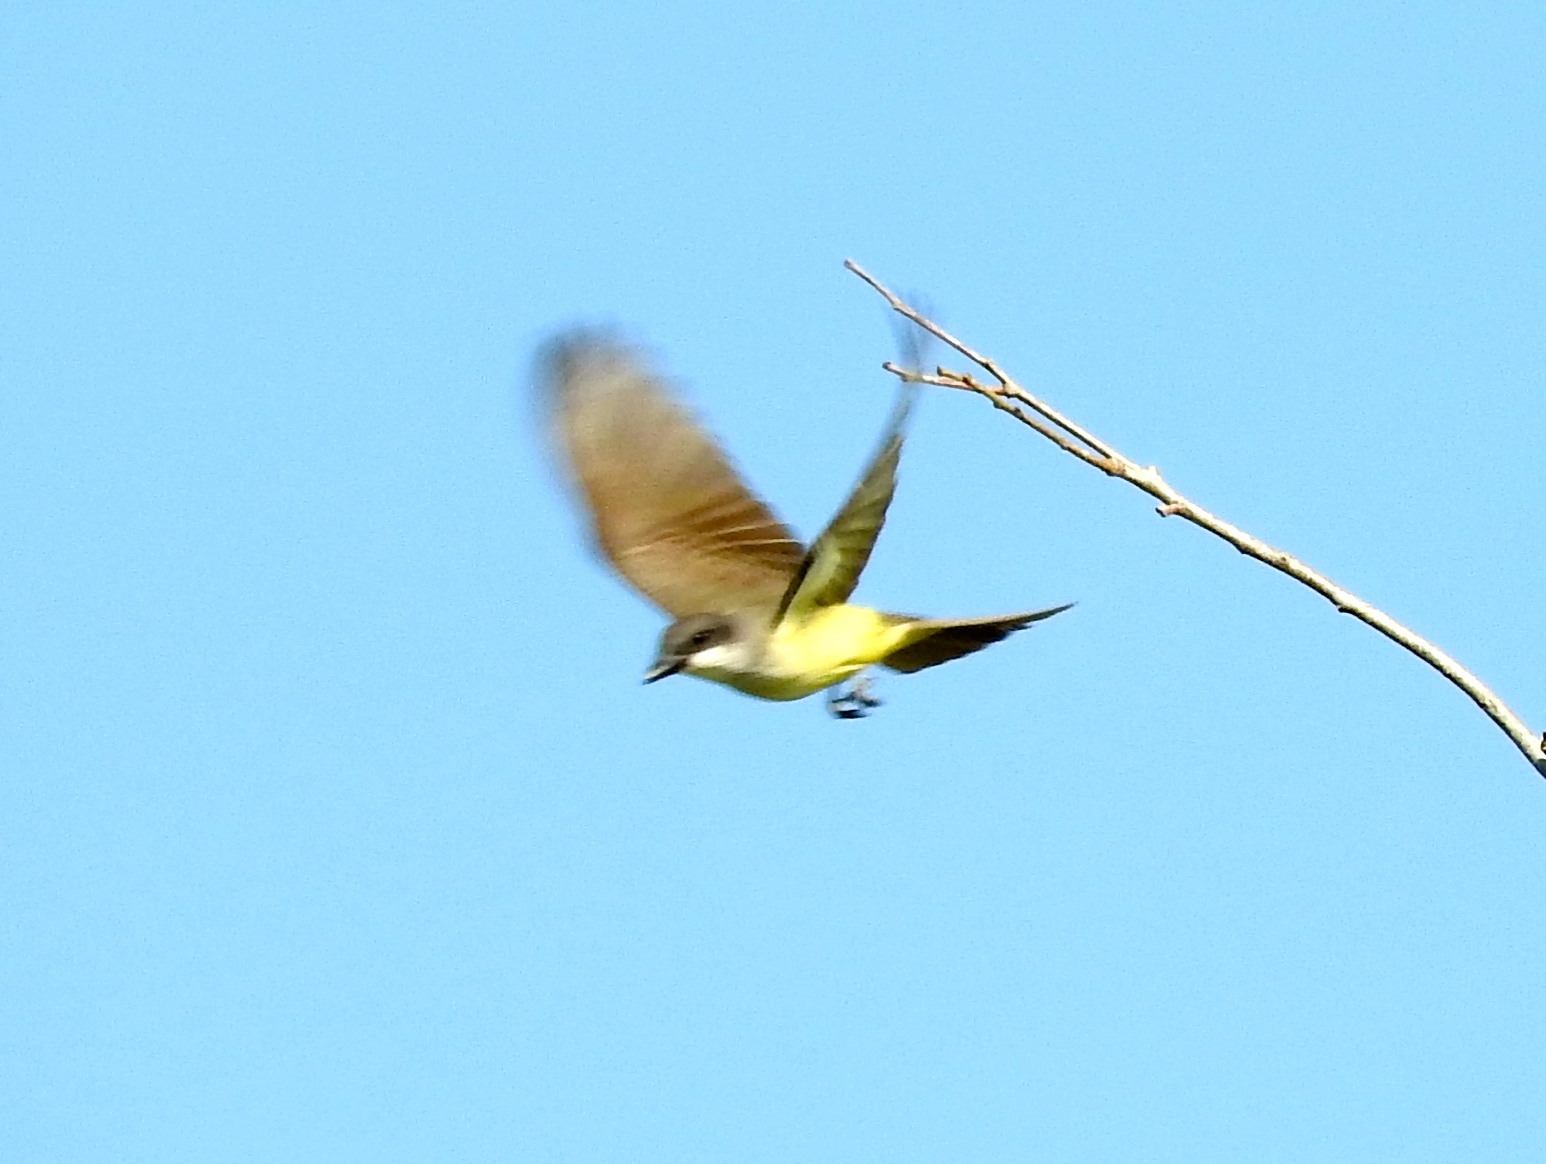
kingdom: Animalia
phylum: Chordata
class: Aves
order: Passeriformes
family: Tyrannidae
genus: Tyrannus
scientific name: Tyrannus crassirostris
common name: Thick-billed kingbird
